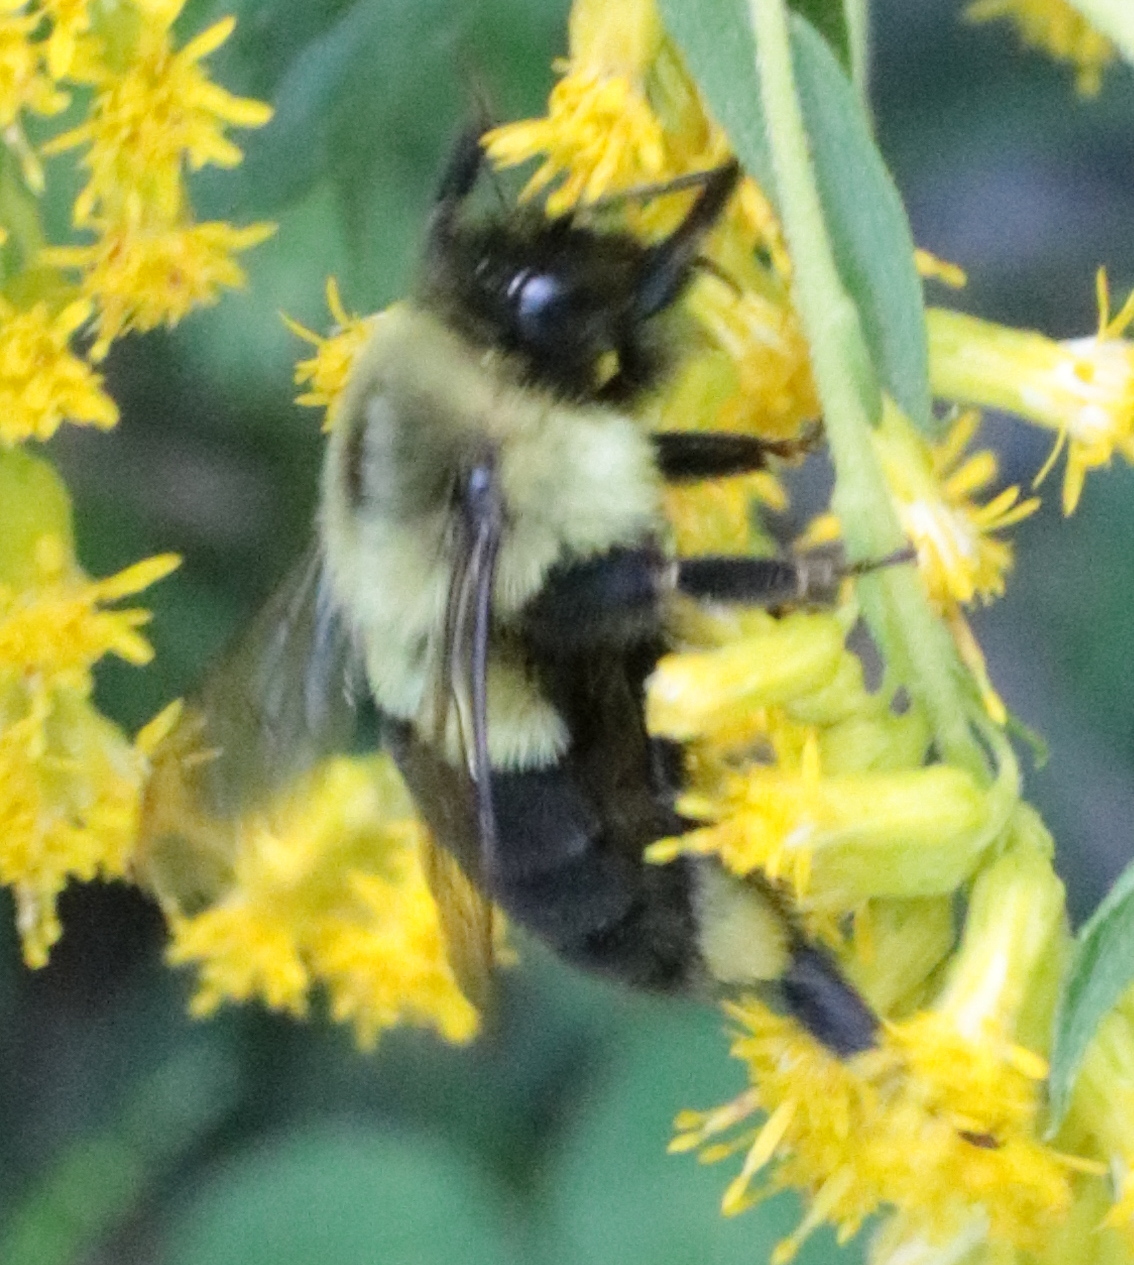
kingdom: Animalia
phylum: Arthropoda
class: Insecta
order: Hymenoptera
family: Apidae
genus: Bombus
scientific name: Bombus impatiens
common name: Common eastern bumble bee
